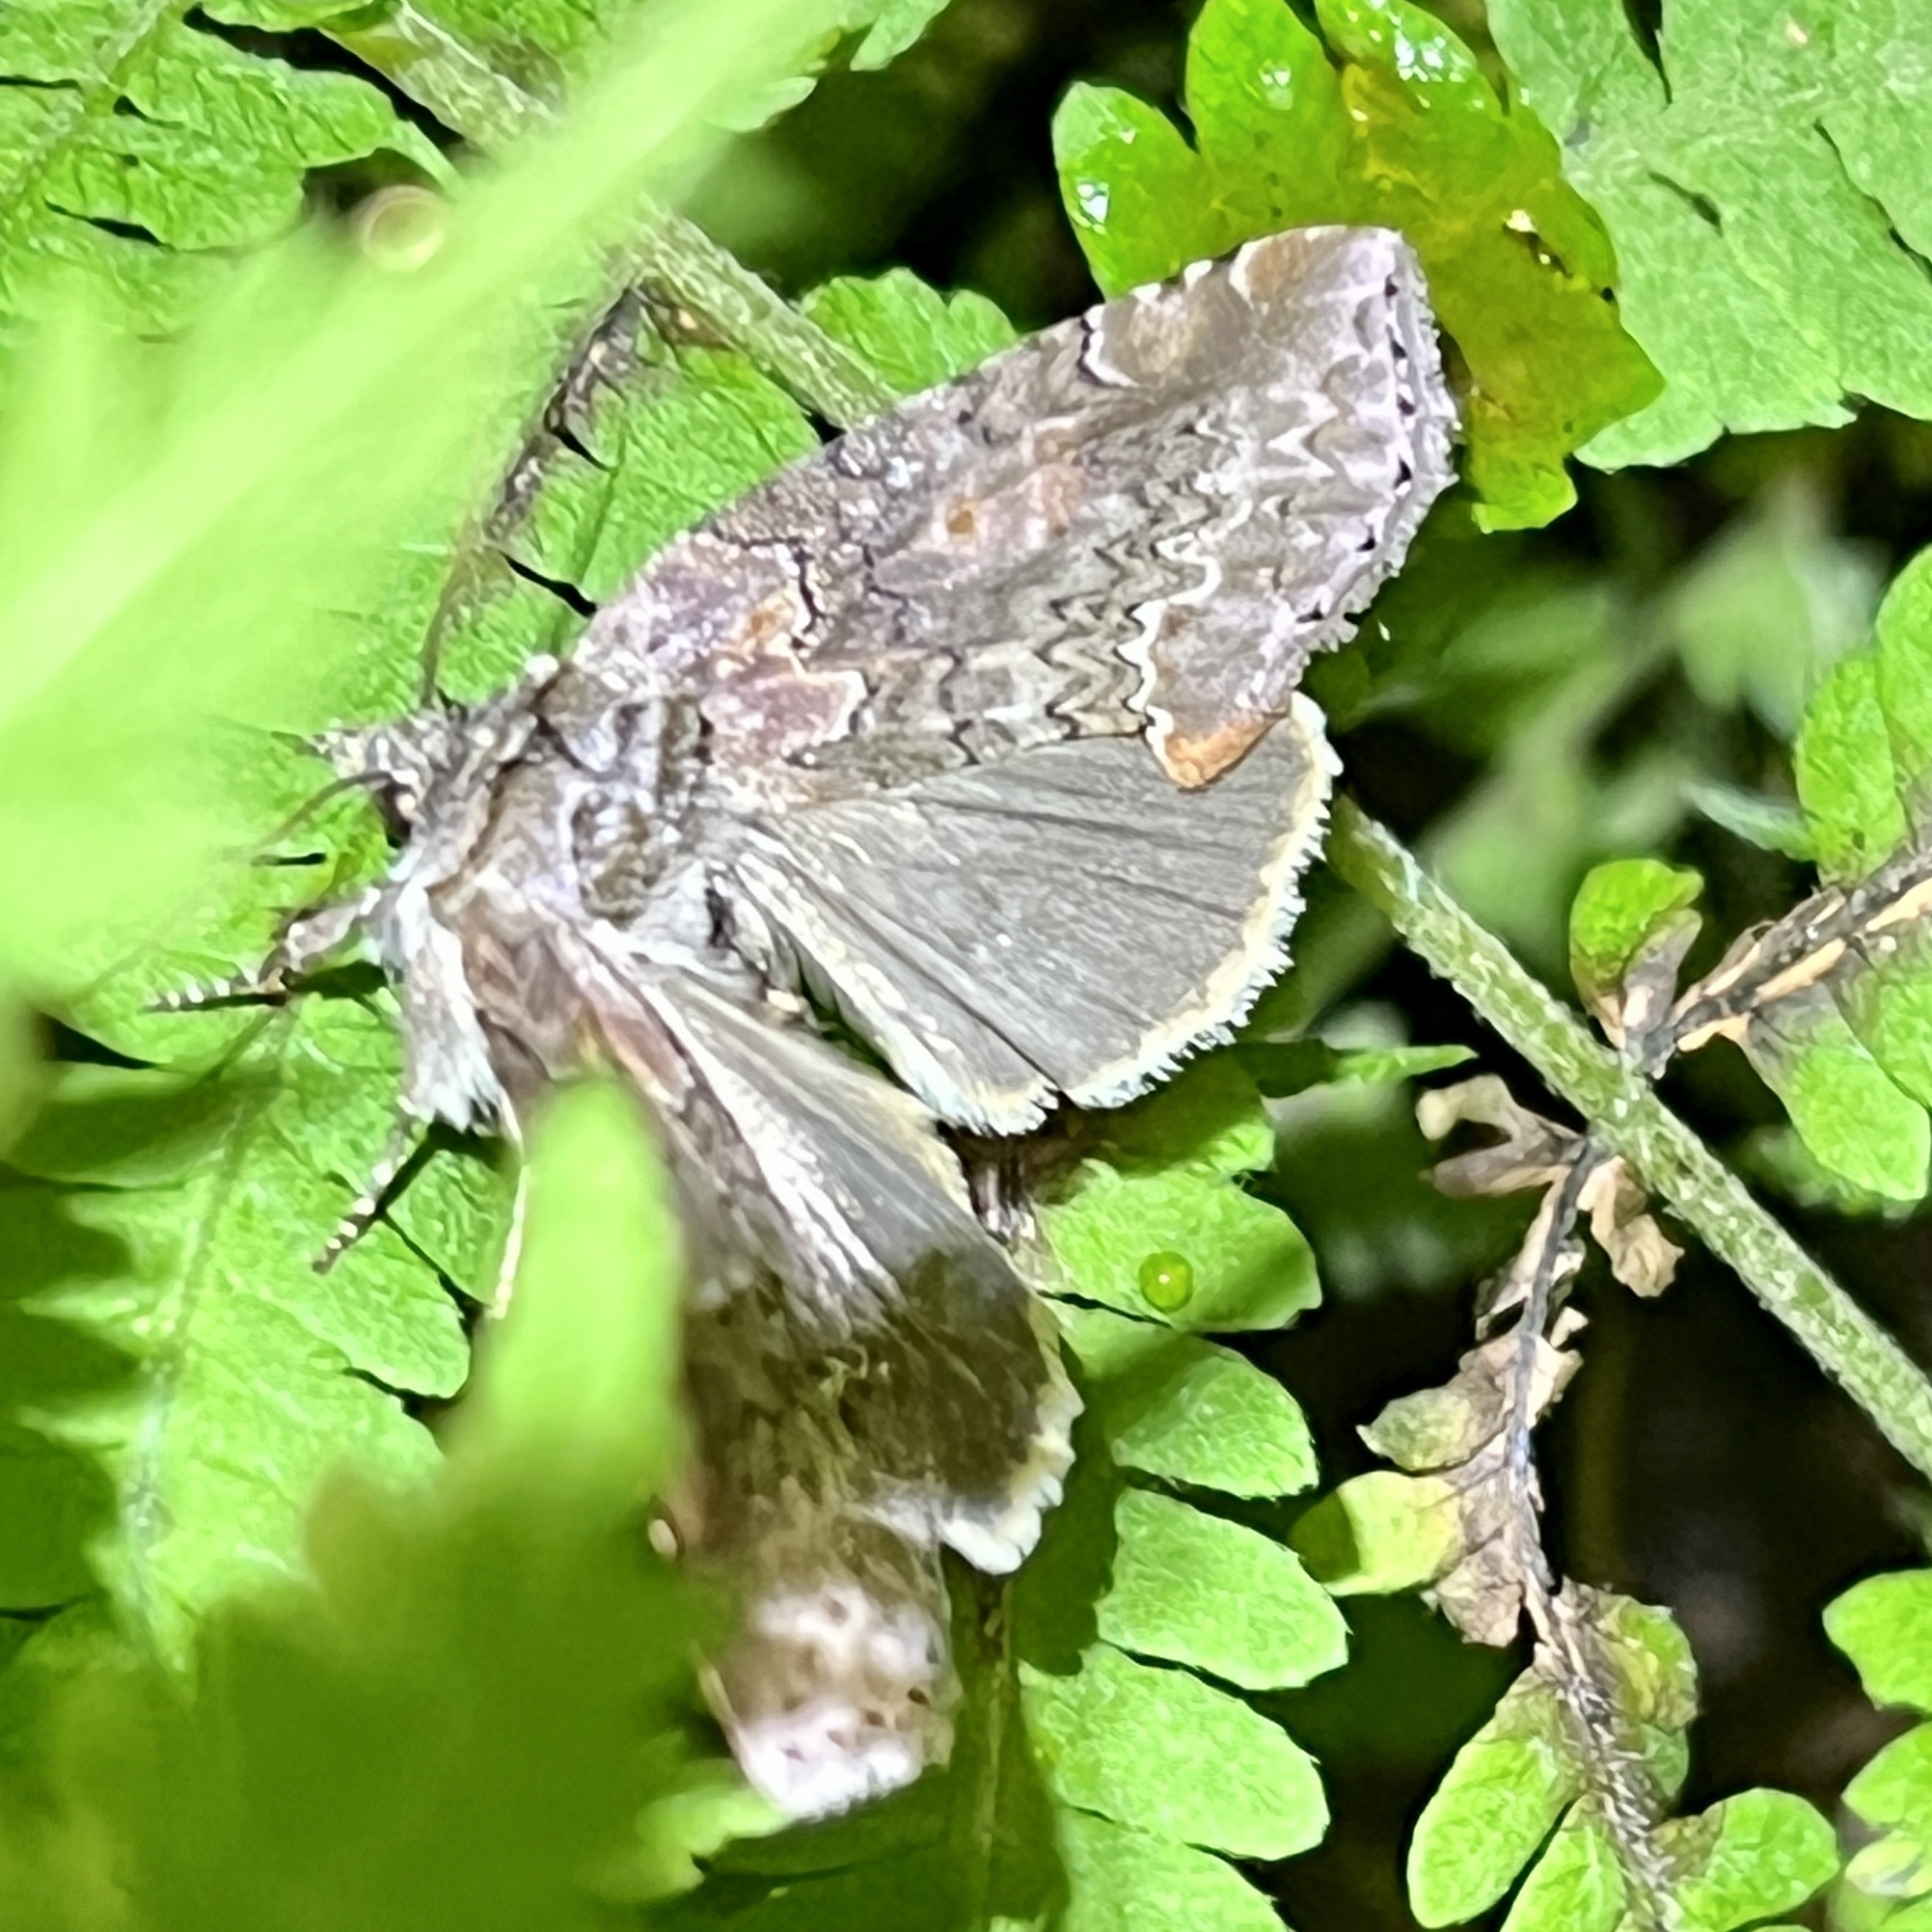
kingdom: Animalia
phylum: Arthropoda
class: Insecta
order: Lepidoptera
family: Drepanidae
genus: Pseudothyatira
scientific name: Pseudothyatira cymatophoroides
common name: Tufted thyatirid moth
